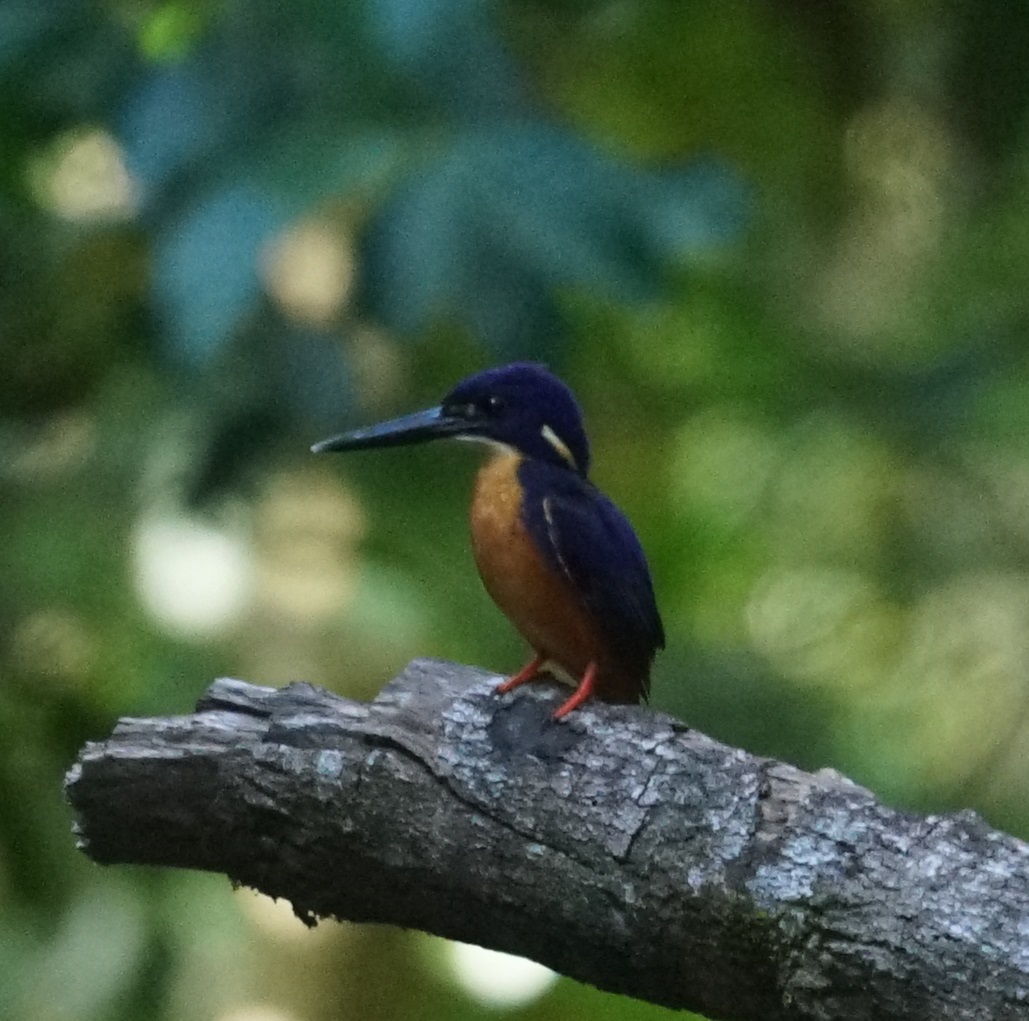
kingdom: Animalia
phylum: Chordata
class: Aves
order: Coraciiformes
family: Alcedinidae
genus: Ceyx
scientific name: Ceyx azureus
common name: Azure kingfisher
